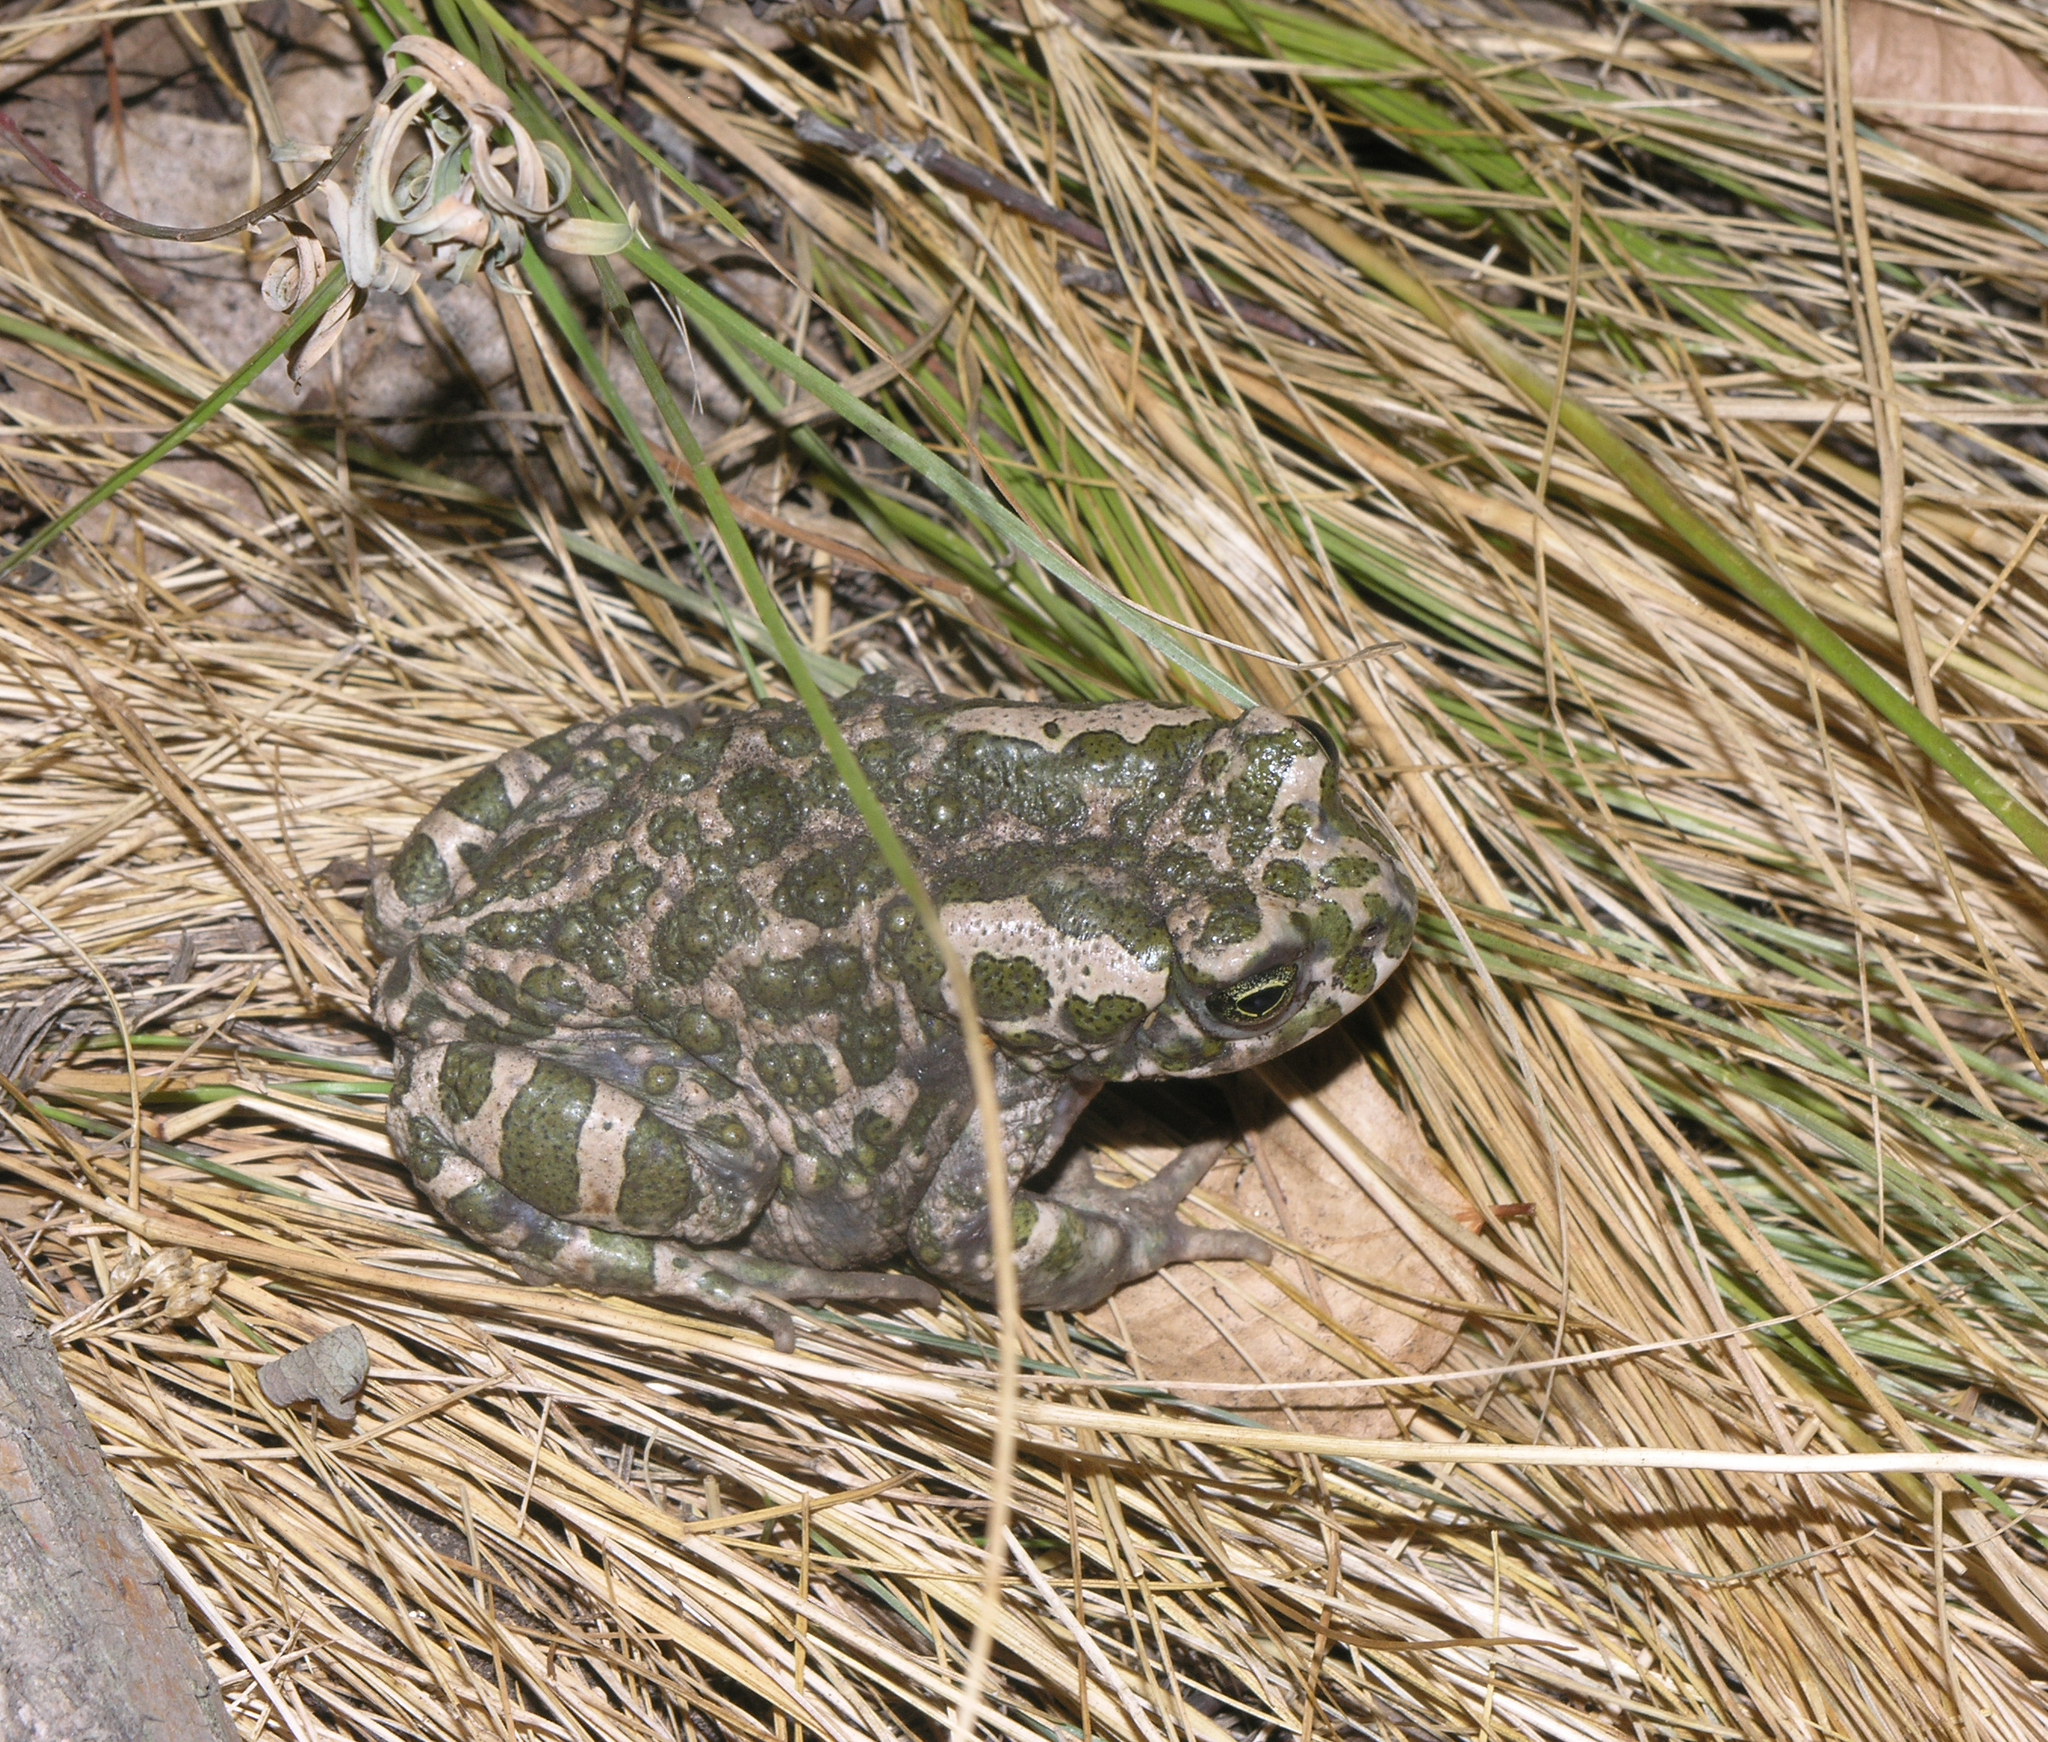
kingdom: Animalia
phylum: Chordata
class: Amphibia
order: Anura
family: Bufonidae
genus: Bufotes
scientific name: Bufotes viridis
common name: European green toad
